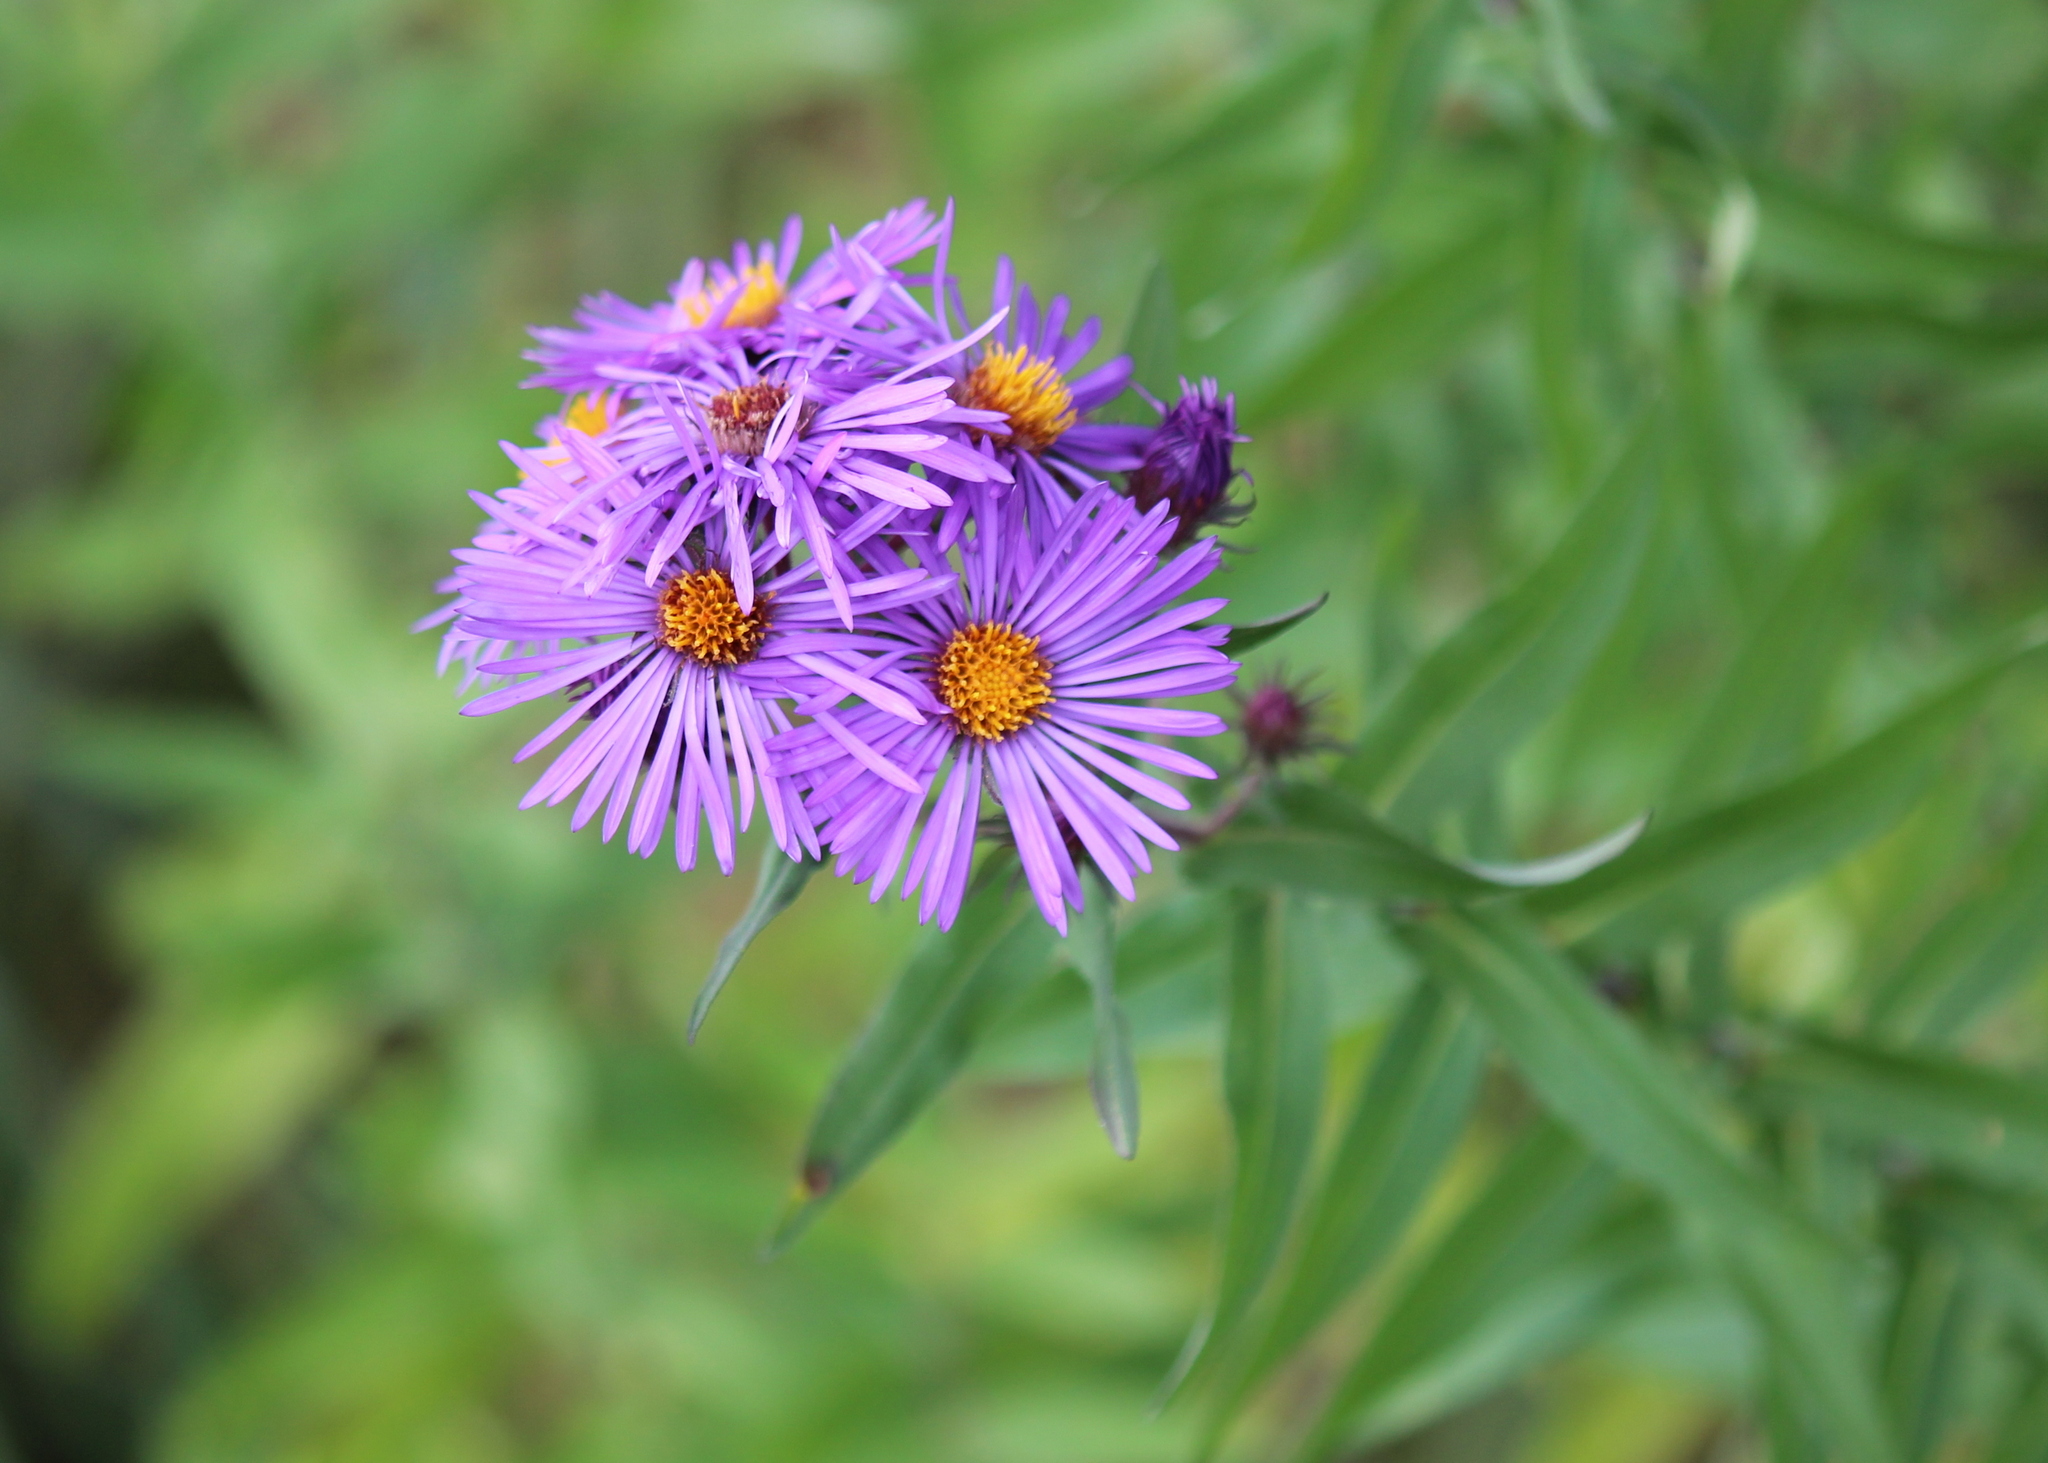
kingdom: Plantae
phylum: Tracheophyta
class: Magnoliopsida
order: Asterales
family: Asteraceae
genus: Symphyotrichum
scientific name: Symphyotrichum novae-angliae
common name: Michaelmas daisy
